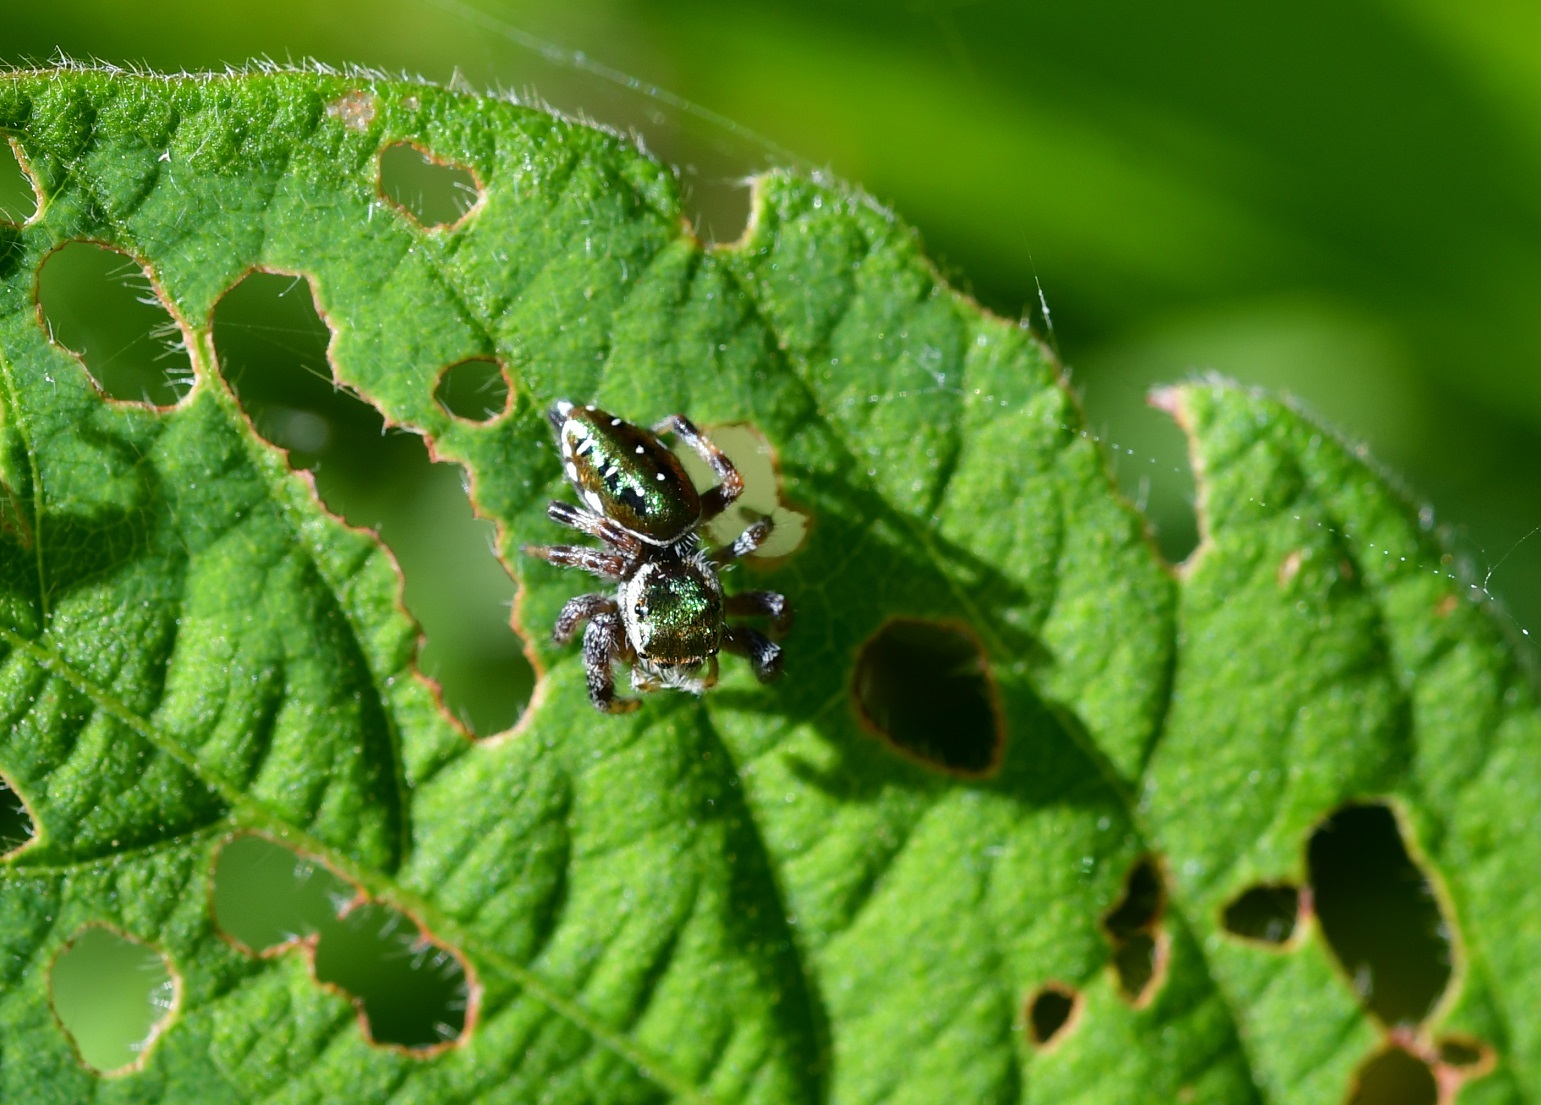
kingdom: Animalia
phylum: Arthropoda
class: Arachnida
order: Araneae
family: Salticidae
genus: Paraphidippus
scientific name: Paraphidippus aurantius
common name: Jumping spiders
